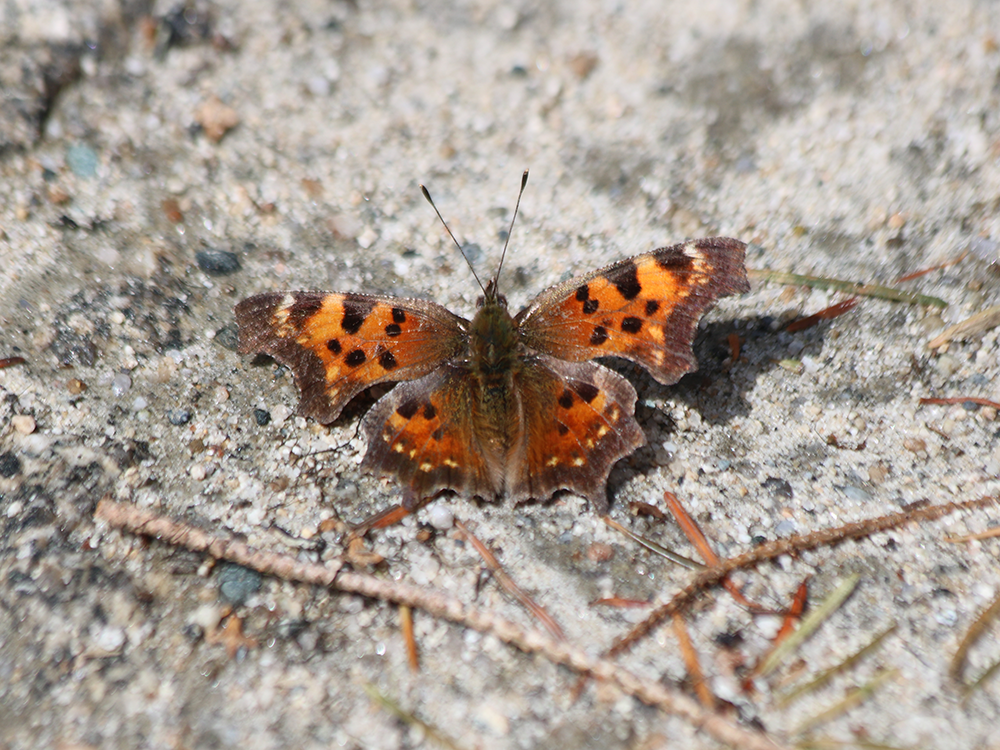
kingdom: Animalia
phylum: Arthropoda
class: Insecta
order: Lepidoptera
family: Nymphalidae
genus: Polygonia
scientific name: Polygonia faunus
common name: Green comma
